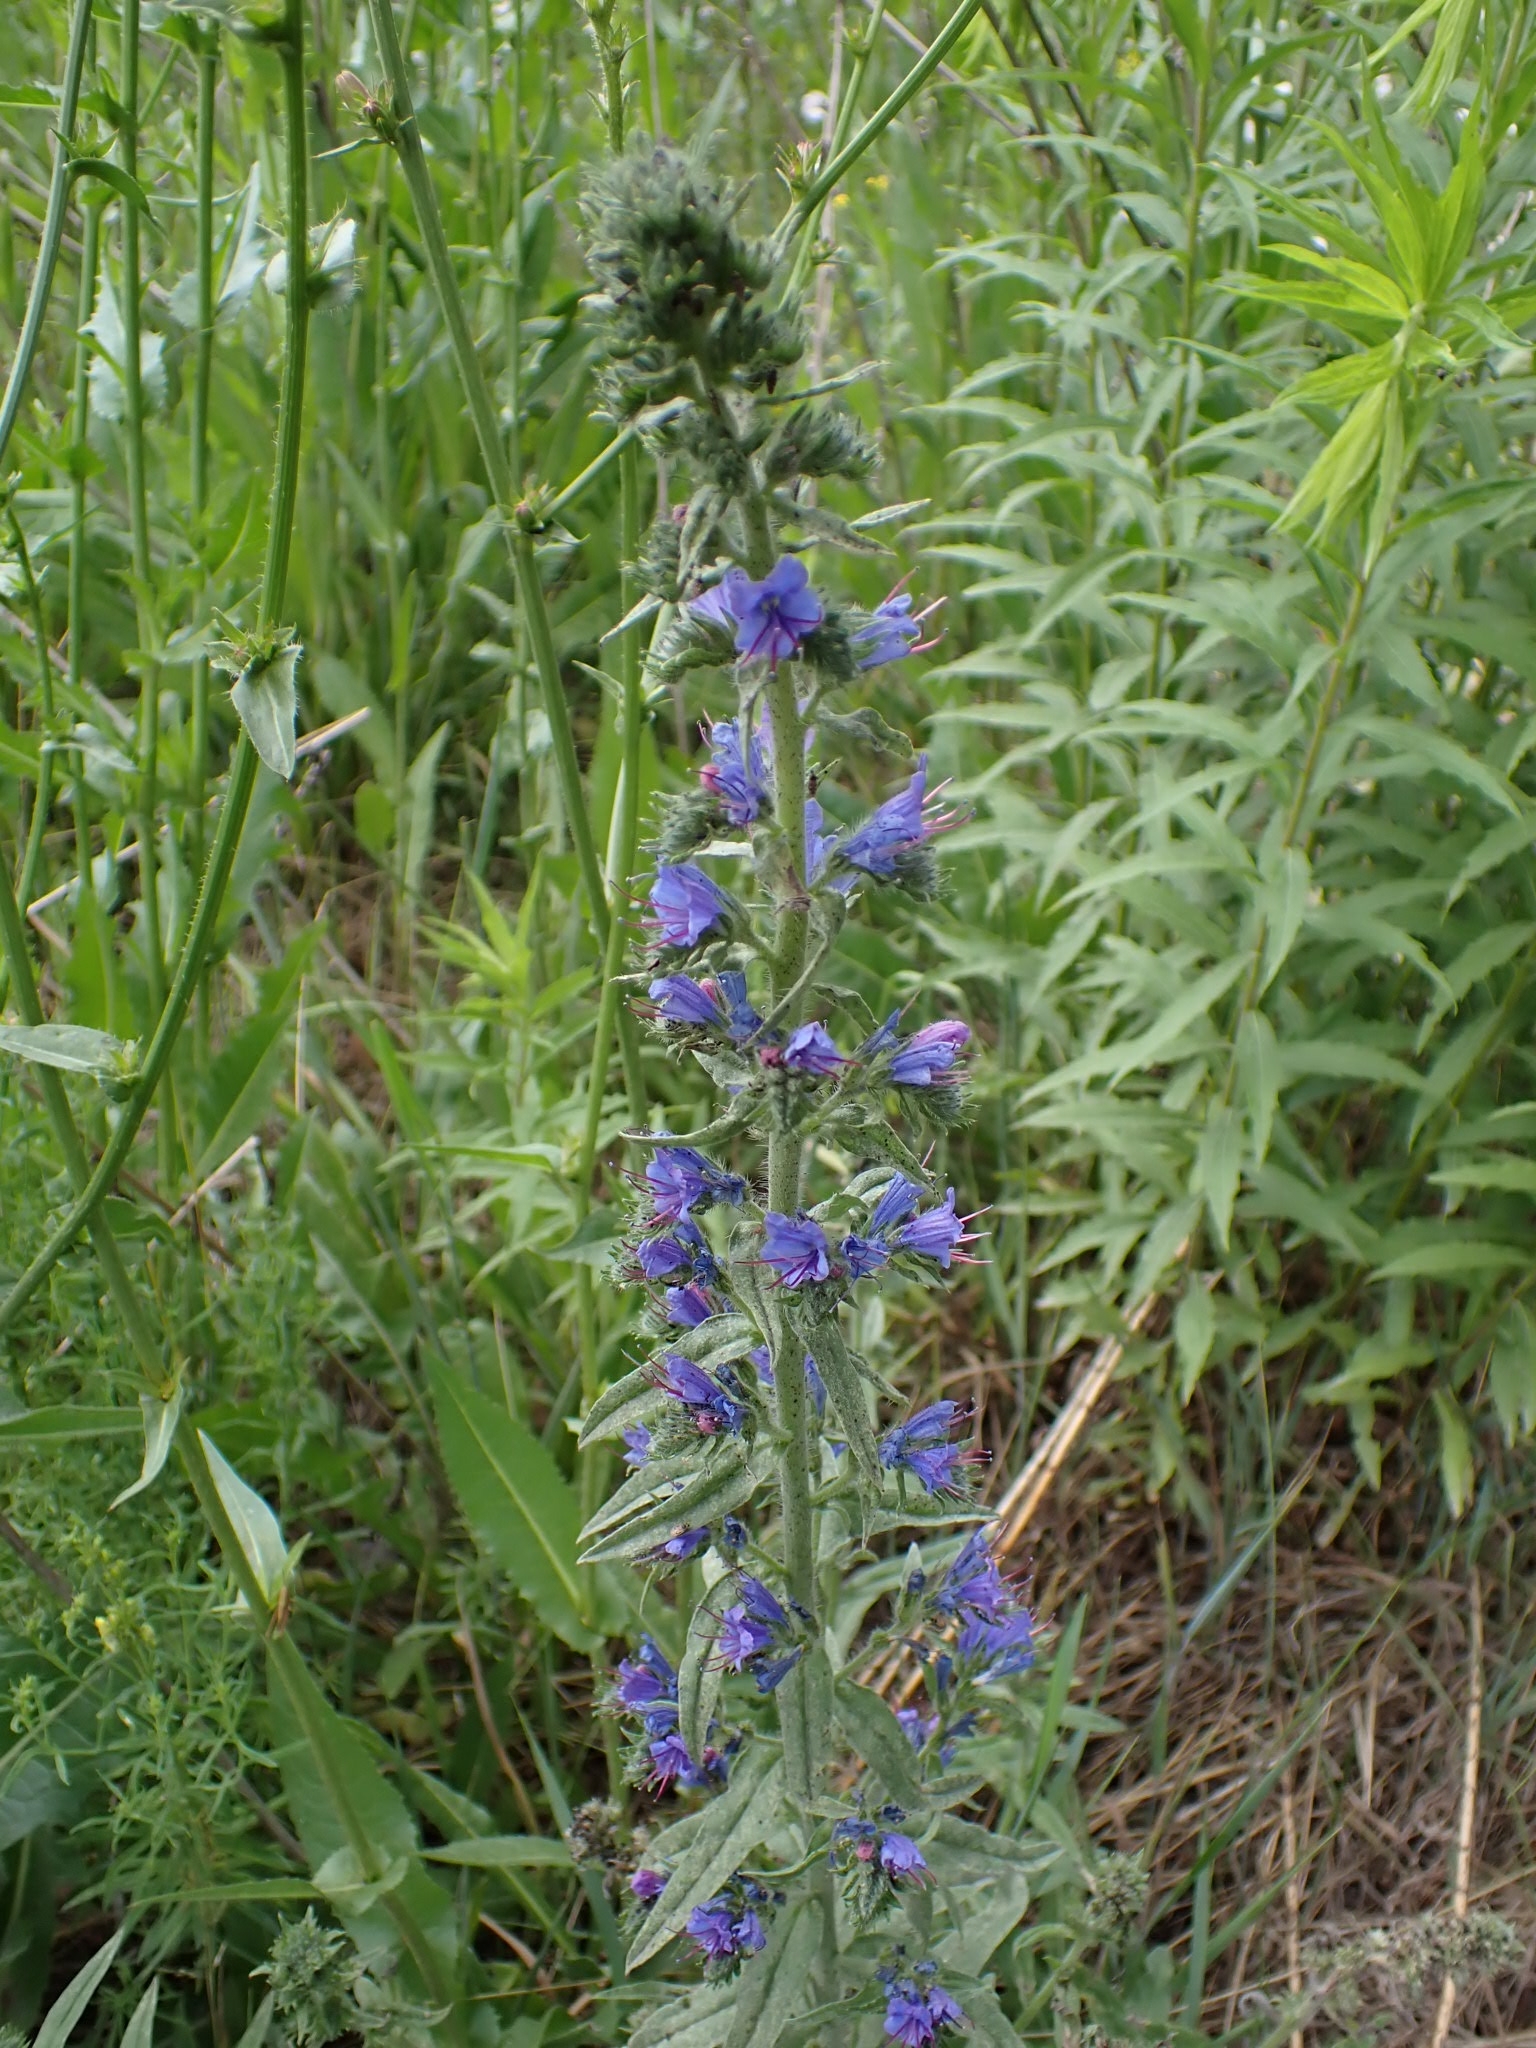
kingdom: Plantae
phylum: Tracheophyta
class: Magnoliopsida
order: Boraginales
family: Boraginaceae
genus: Echium
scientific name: Echium vulgare
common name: Common viper's bugloss
